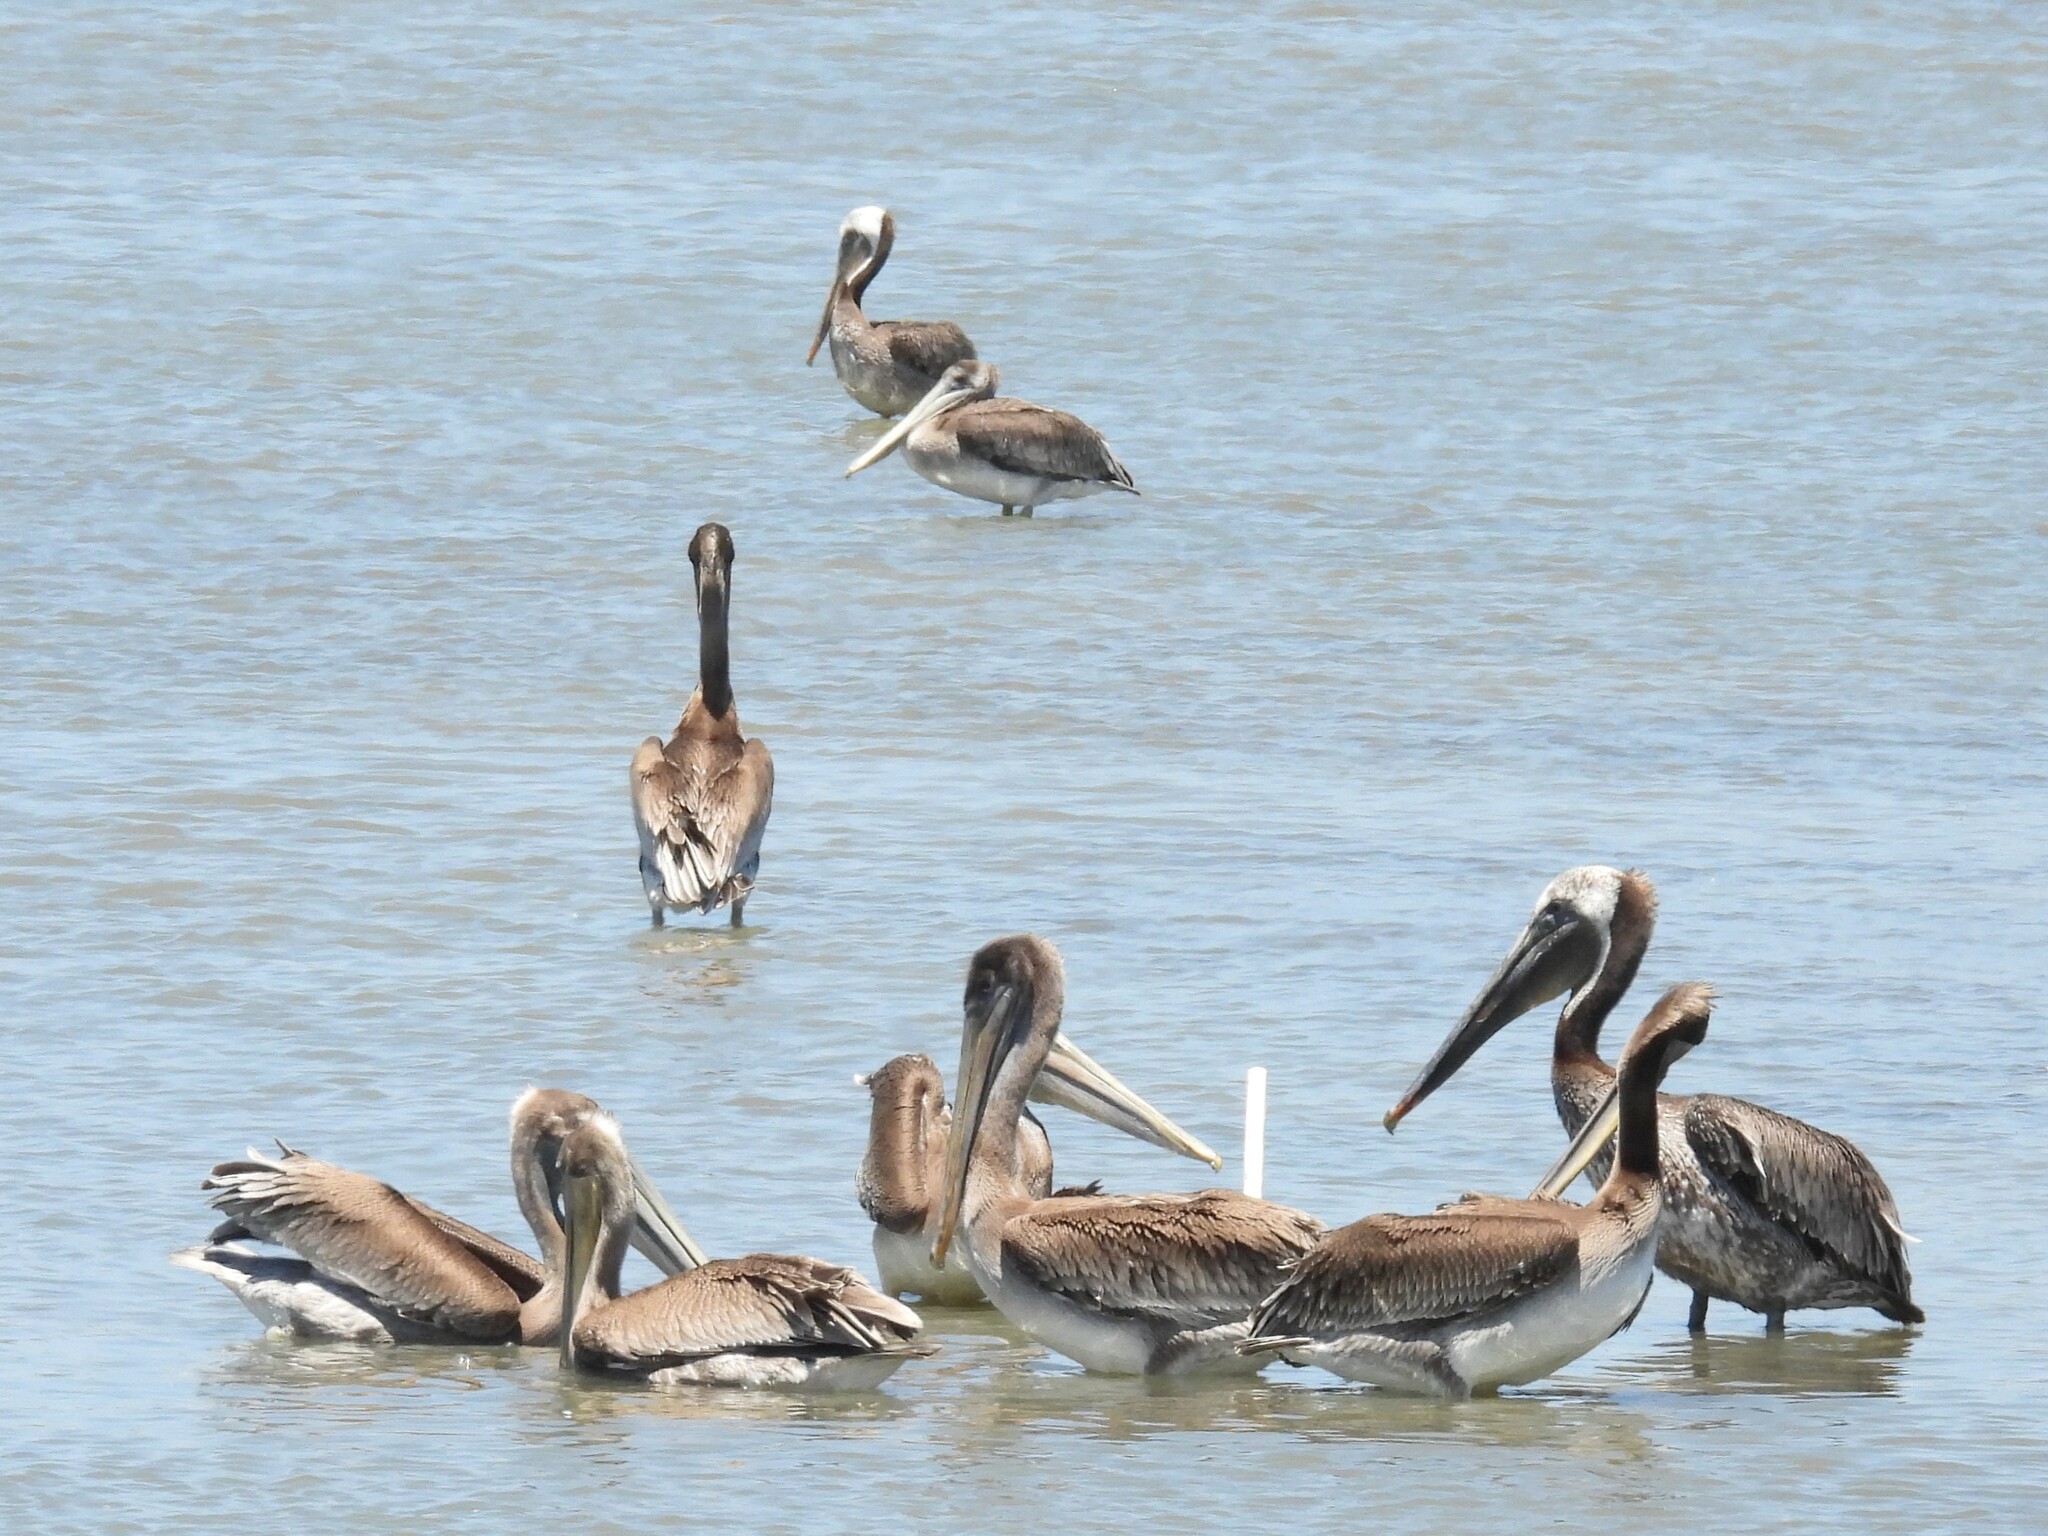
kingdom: Animalia
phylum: Chordata
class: Aves
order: Pelecaniformes
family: Pelecanidae
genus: Pelecanus
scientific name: Pelecanus occidentalis
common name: Brown pelican
